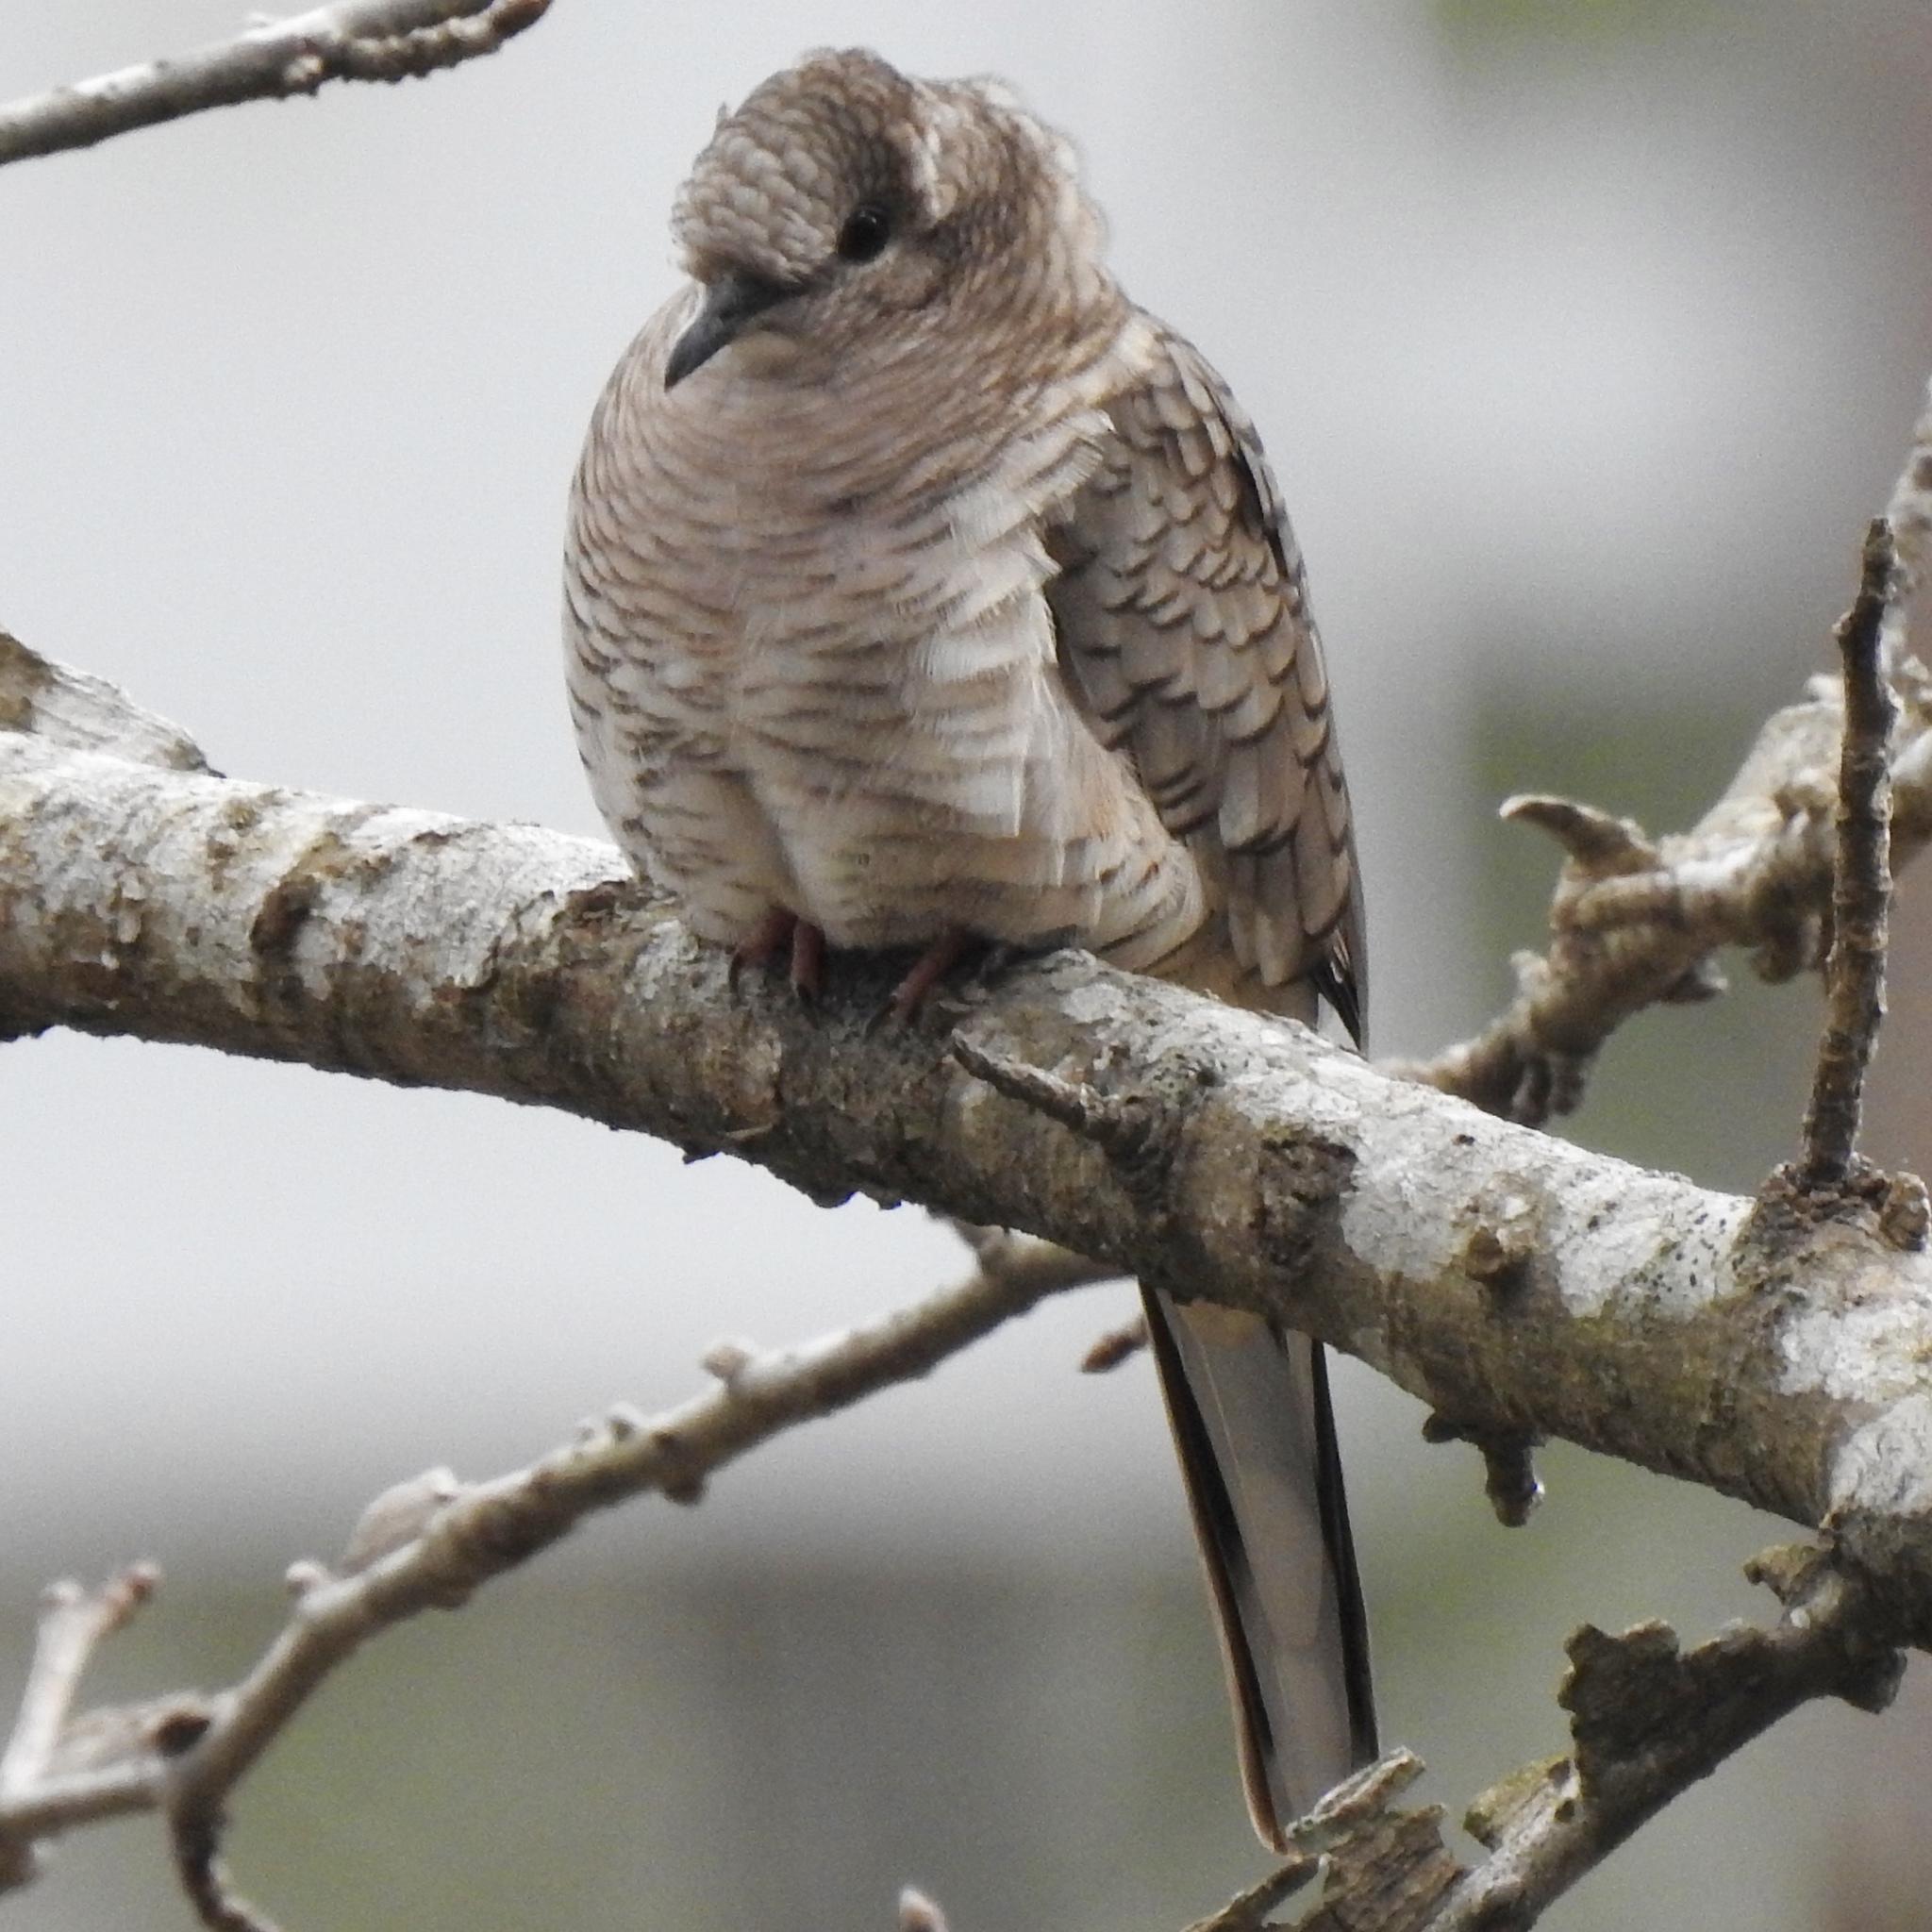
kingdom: Animalia
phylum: Chordata
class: Aves
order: Columbiformes
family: Columbidae
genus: Columbina
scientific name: Columbina inca
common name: Inca dove
